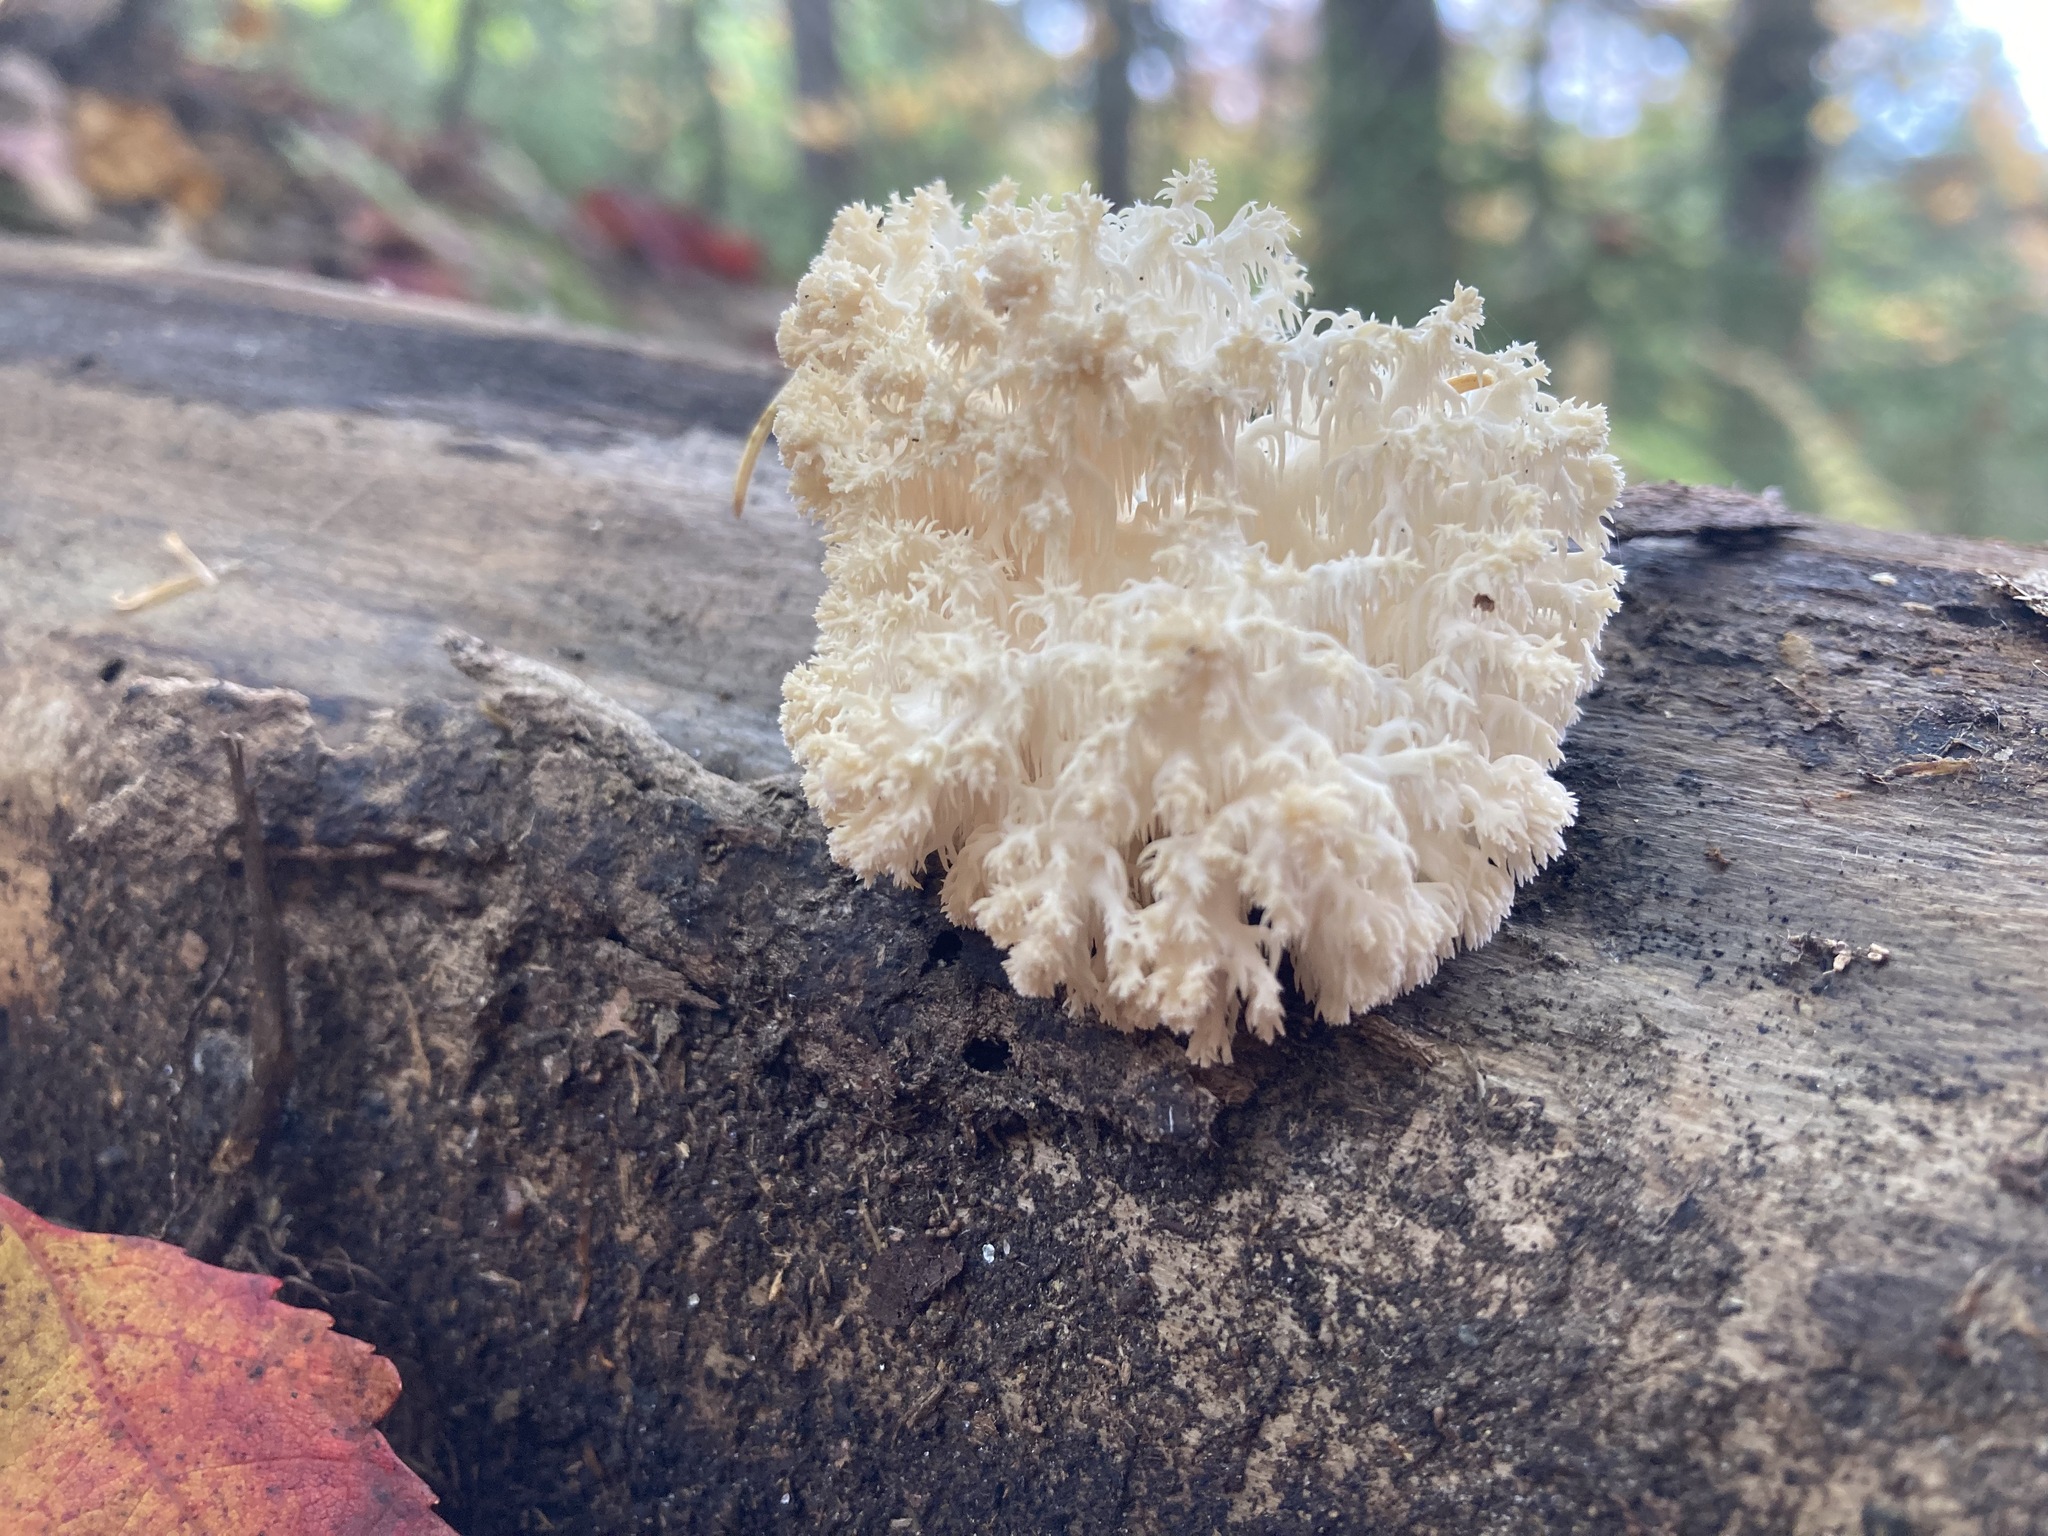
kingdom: Fungi
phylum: Basidiomycota
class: Agaricomycetes
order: Russulales
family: Hericiaceae
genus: Hericium
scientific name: Hericium coralloides
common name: Coral tooth
